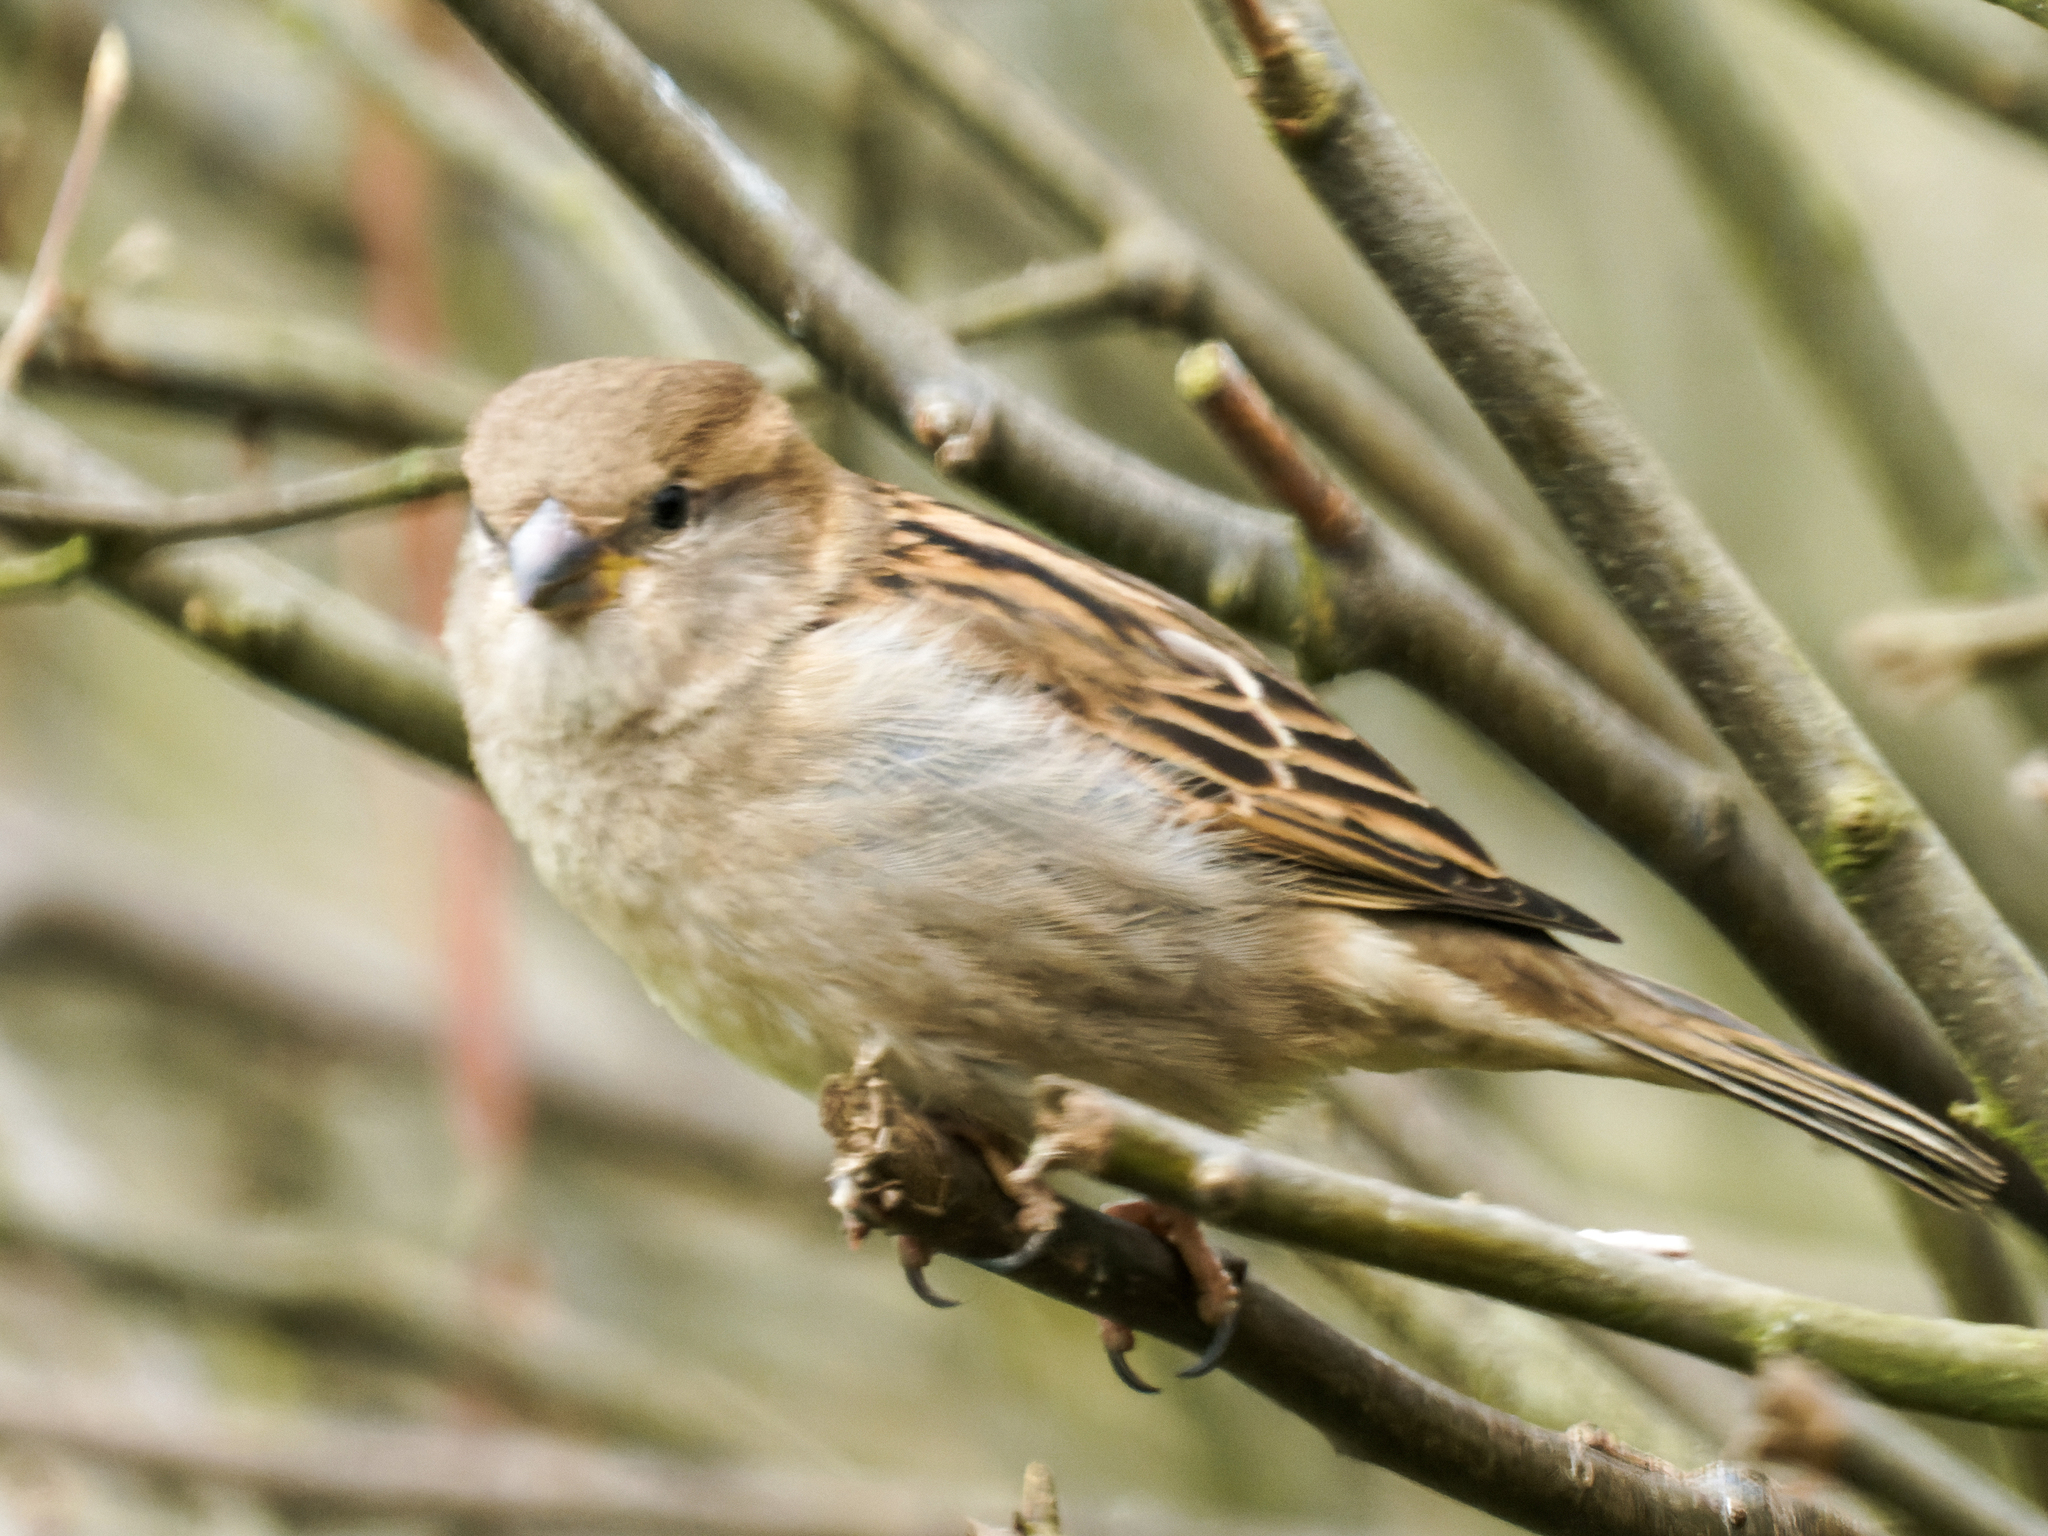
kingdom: Animalia
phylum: Chordata
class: Aves
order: Passeriformes
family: Passeridae
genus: Passer
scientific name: Passer domesticus
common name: House sparrow
